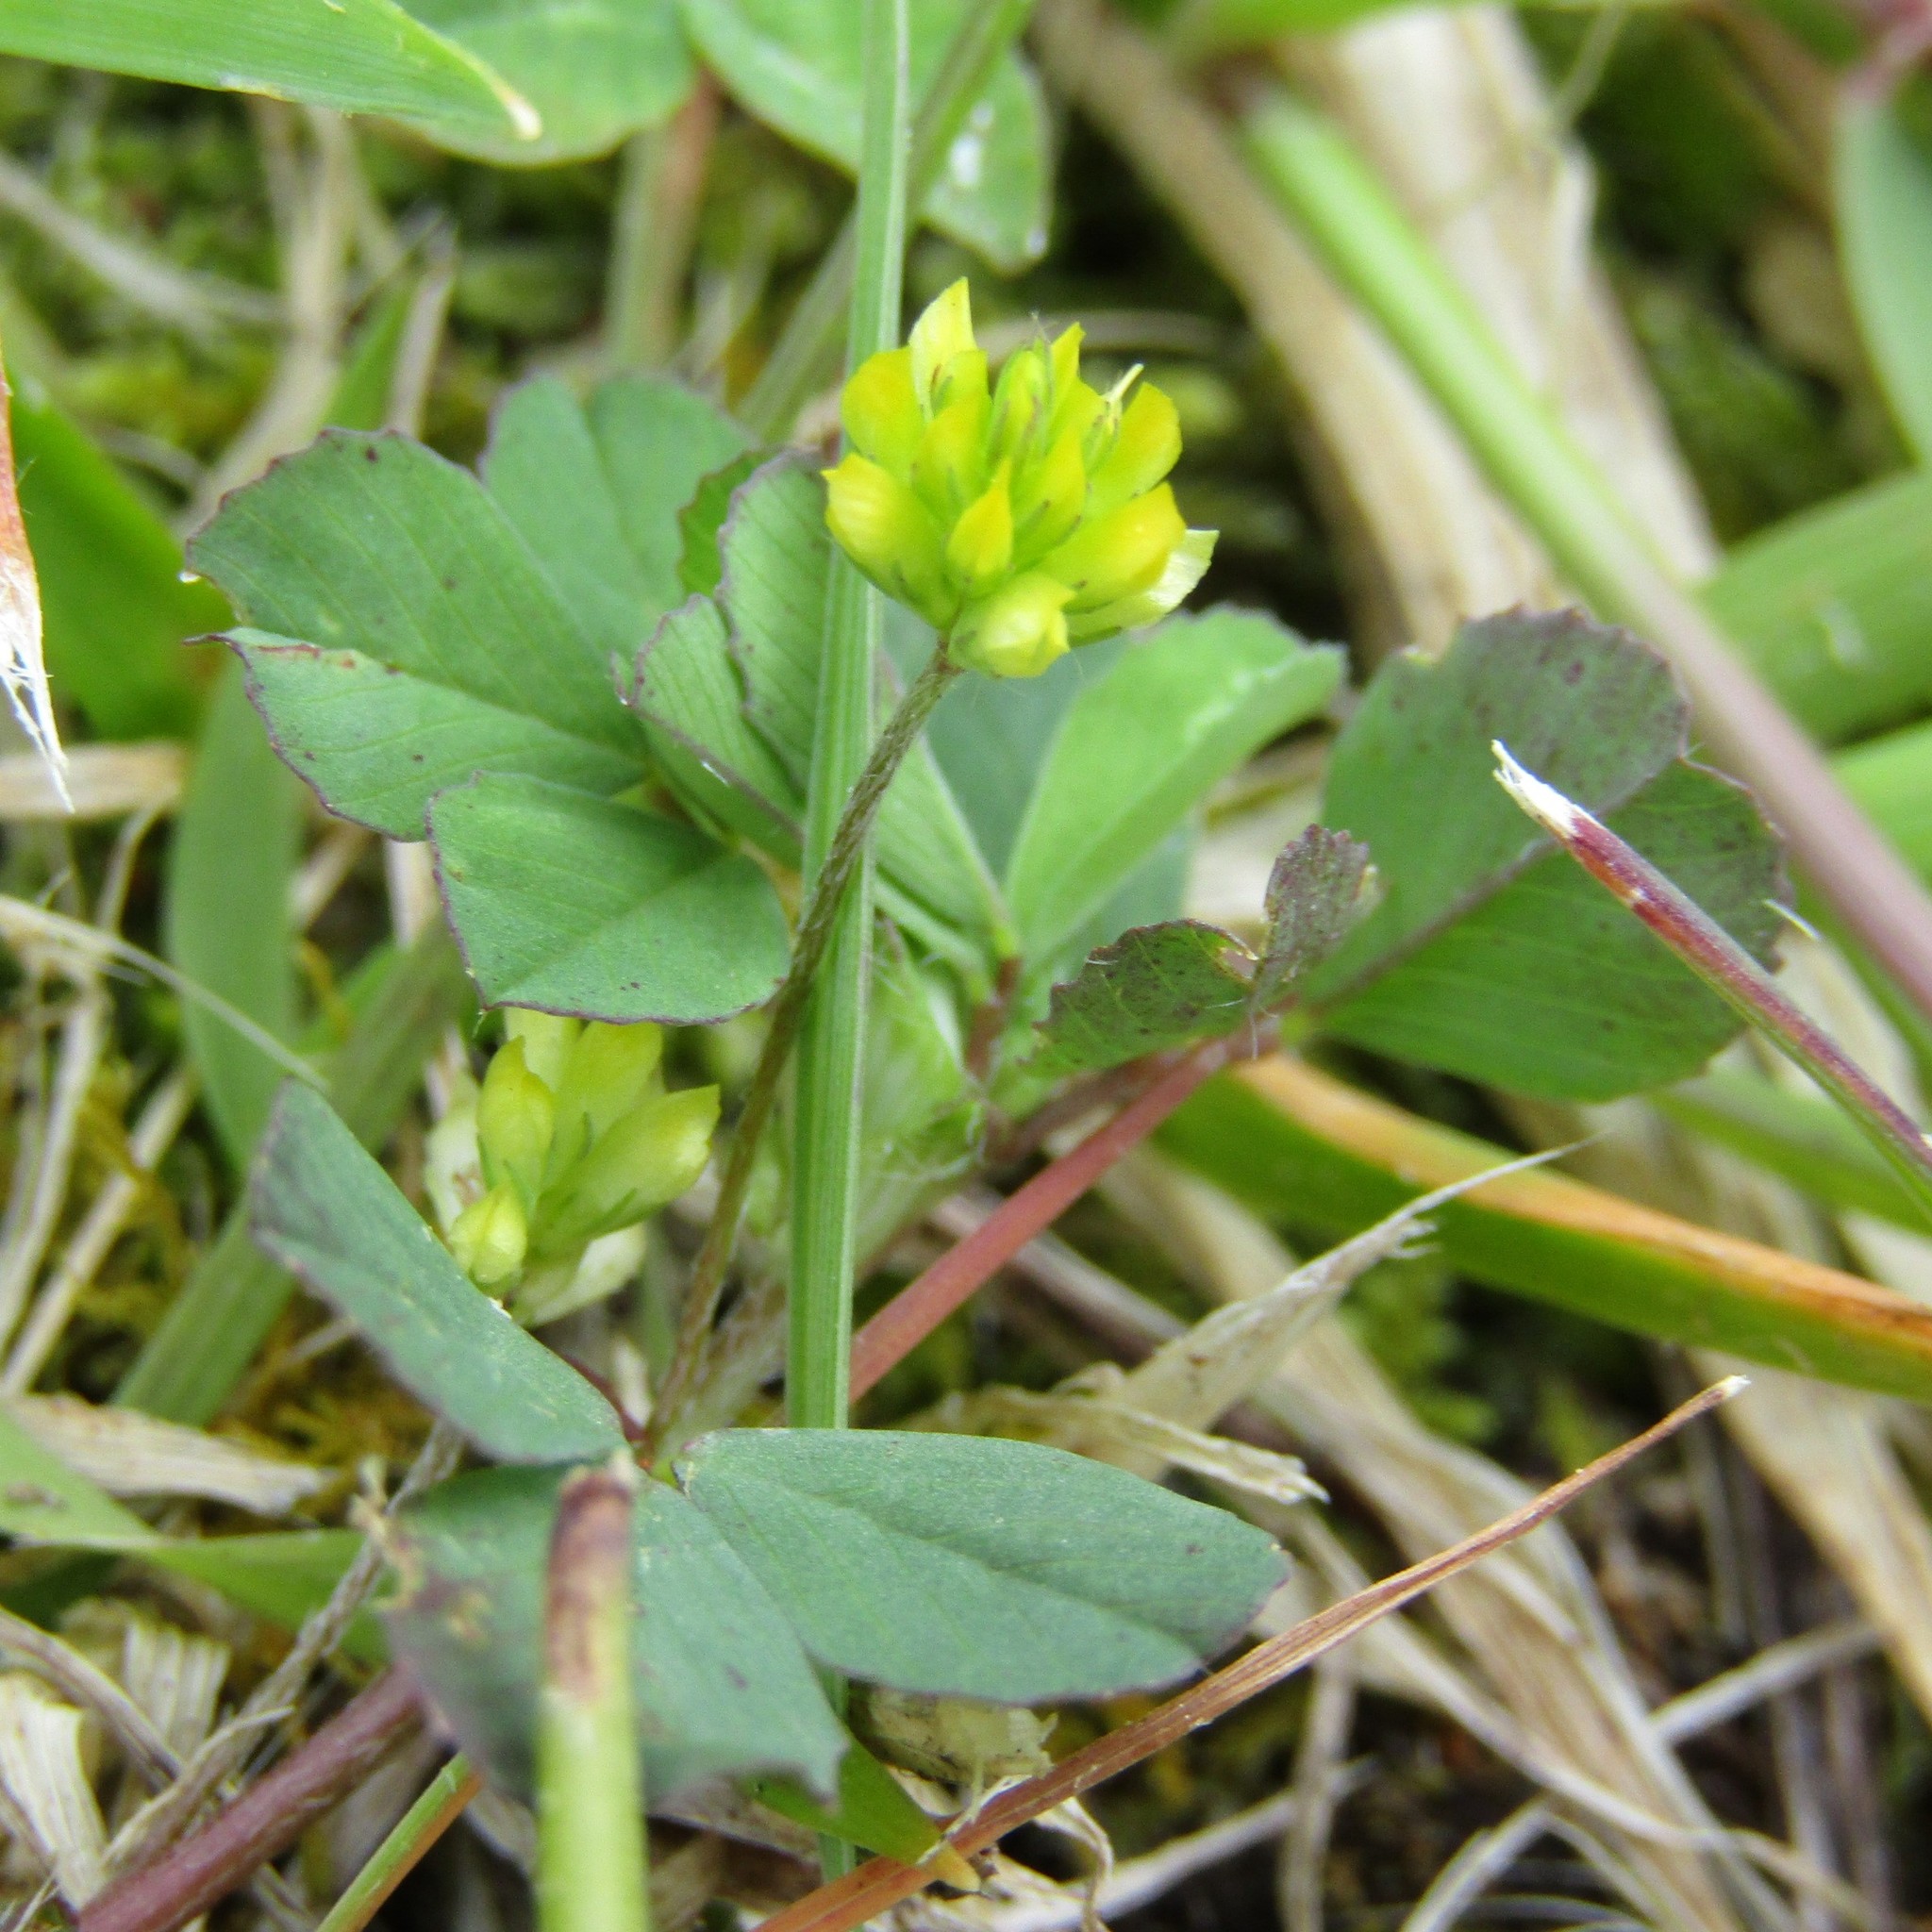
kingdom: Plantae
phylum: Tracheophyta
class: Magnoliopsida
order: Fabales
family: Fabaceae
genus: Trifolium
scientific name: Trifolium dubium
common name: Suckling clover
